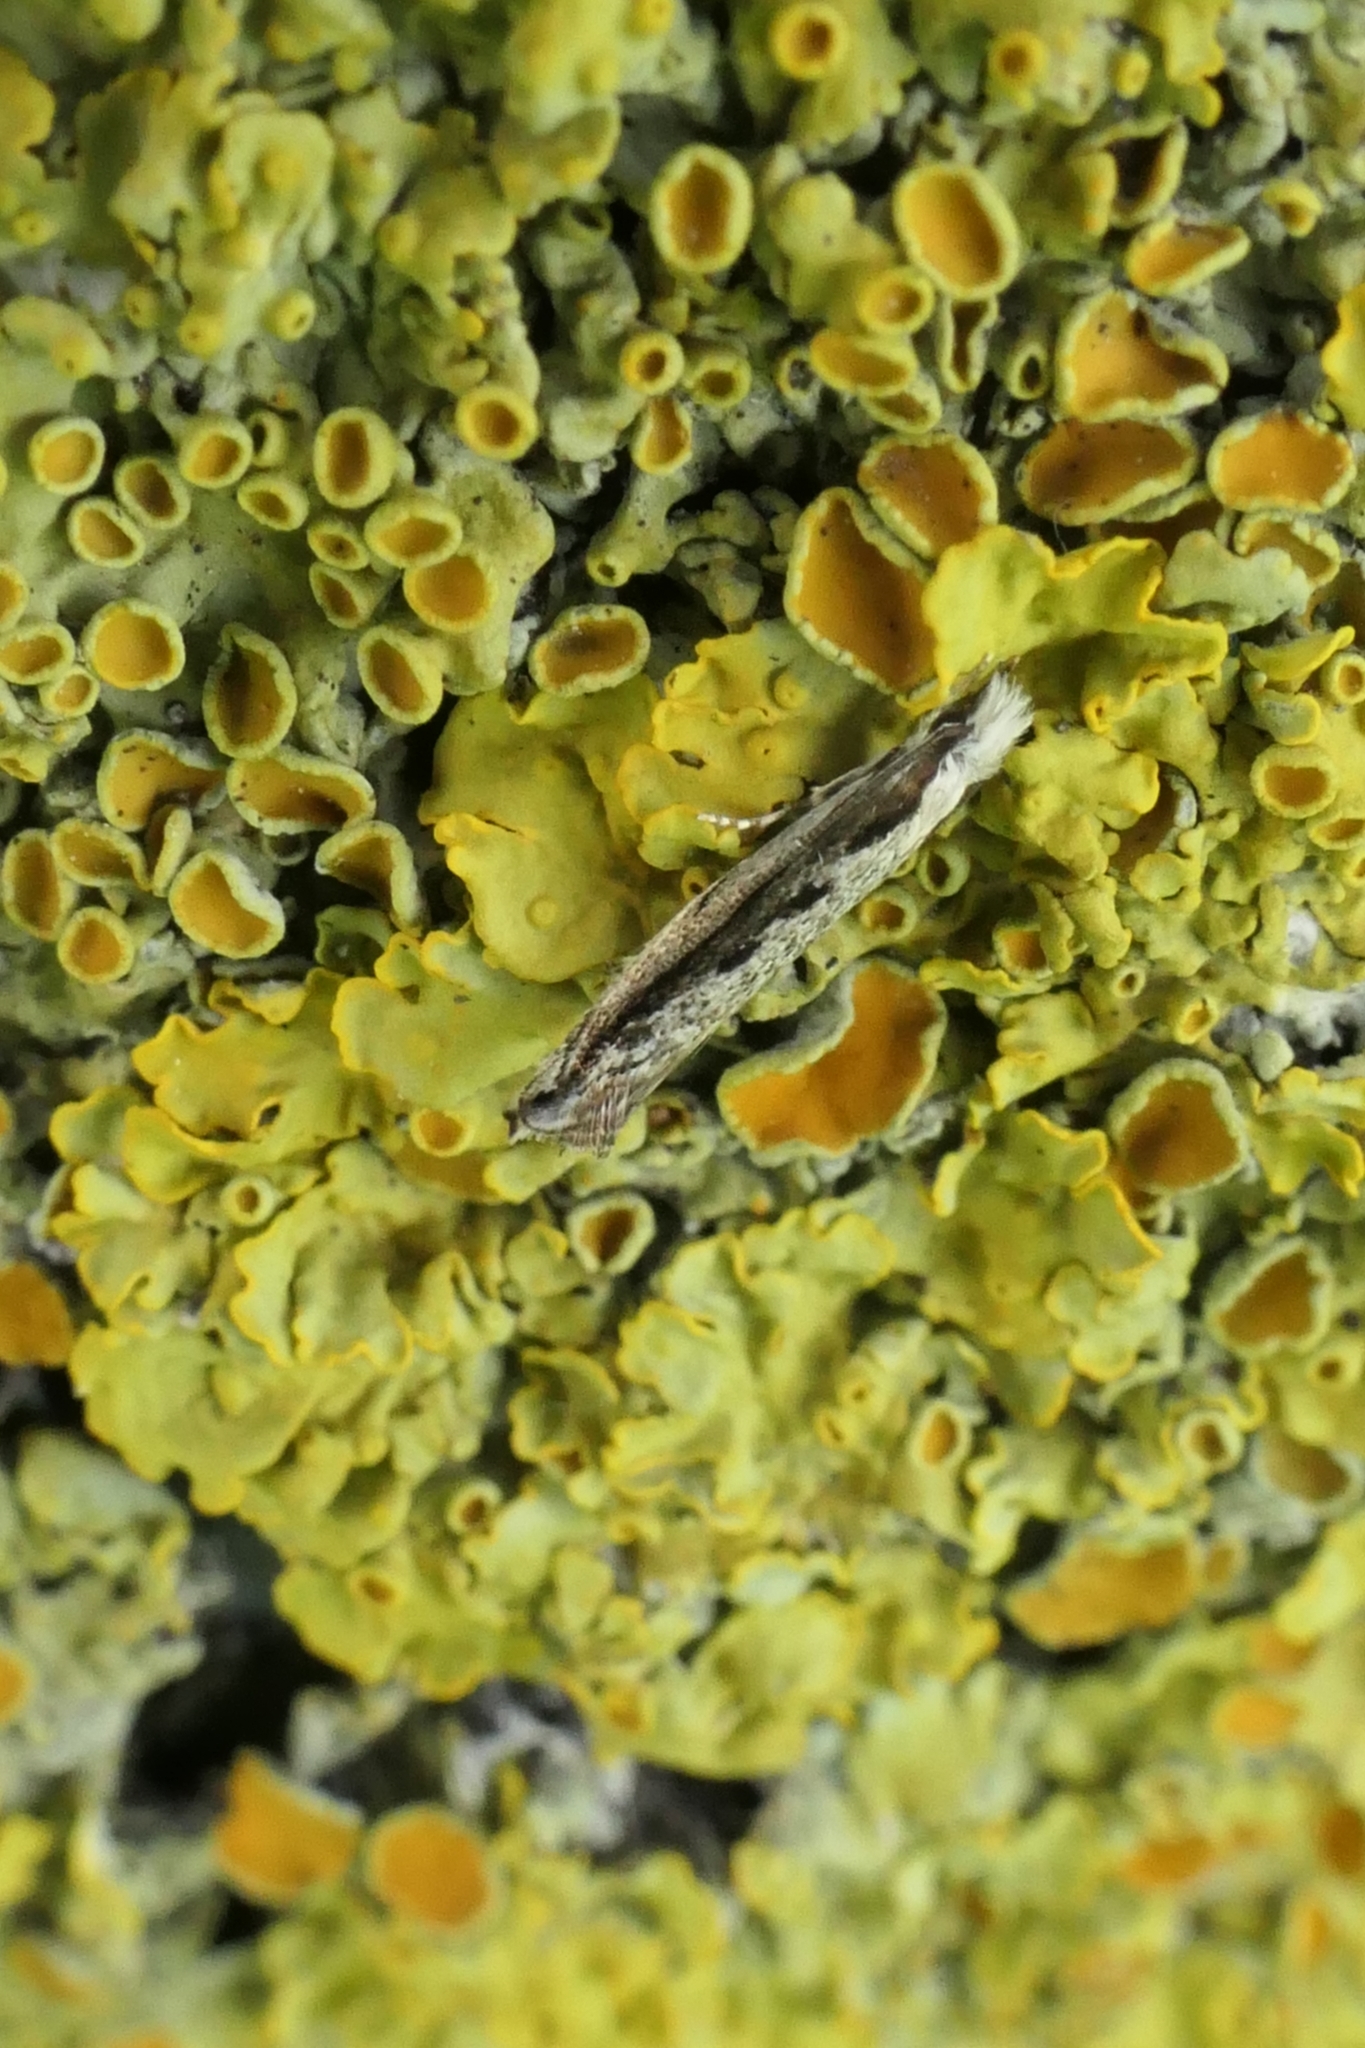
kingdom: Animalia
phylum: Arthropoda
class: Insecta
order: Lepidoptera
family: Tineidae
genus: Erechthias
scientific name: Erechthias fulguritella
